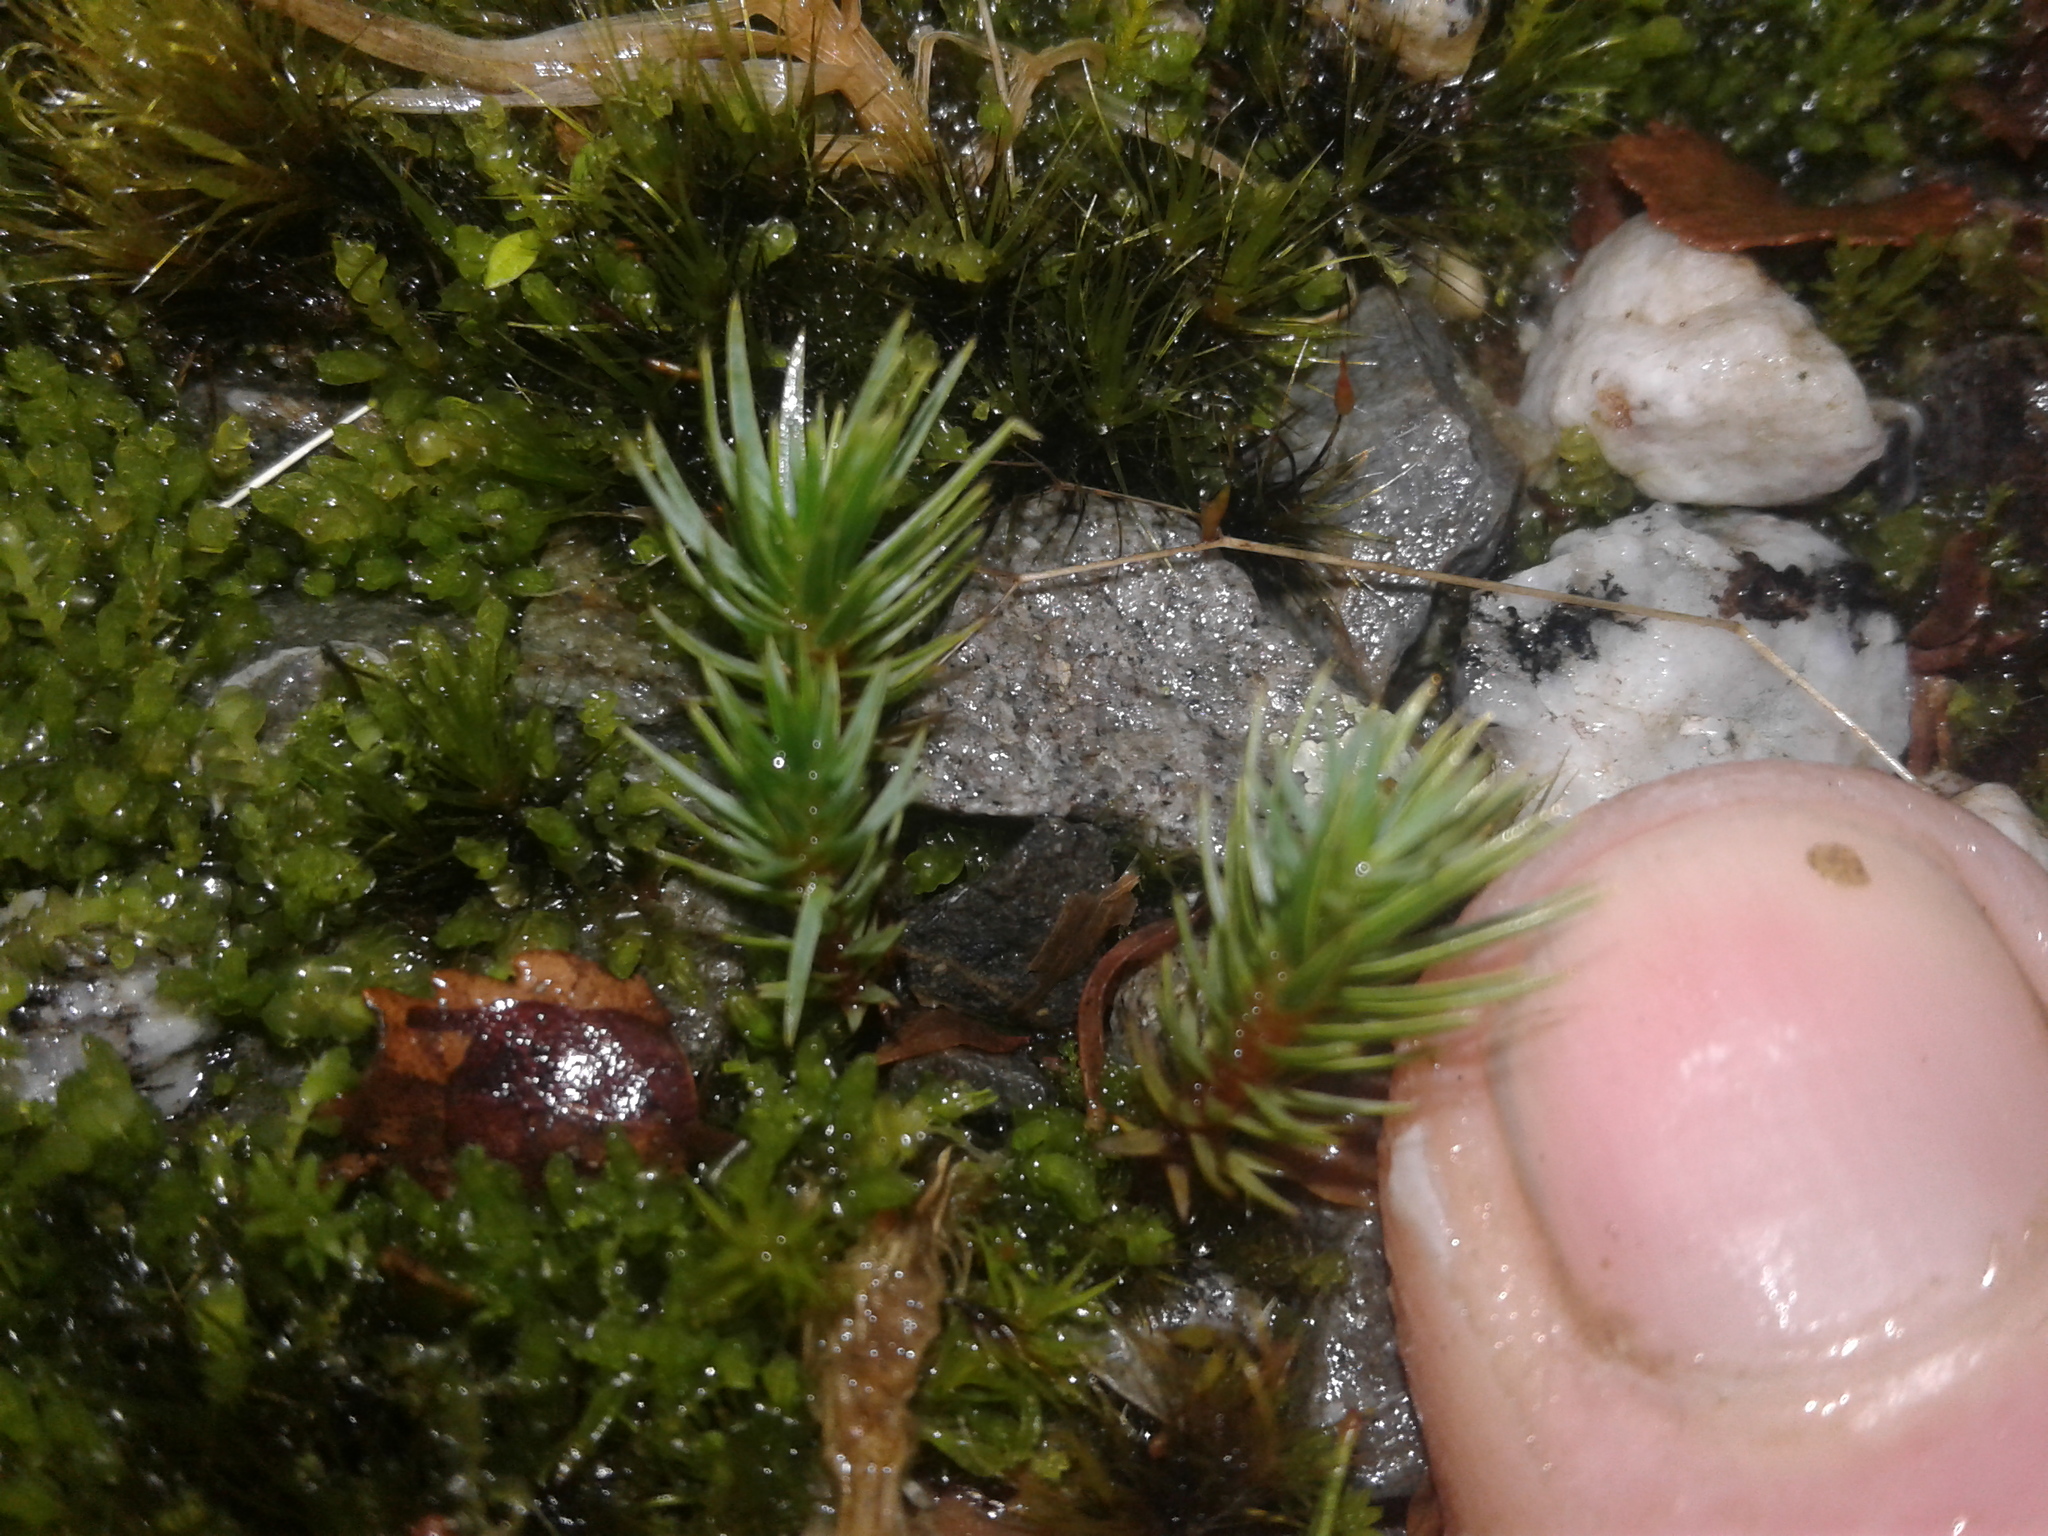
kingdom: Plantae
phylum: Bryophyta
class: Polytrichopsida
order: Polytrichales
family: Polytrichaceae
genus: Polytrichum
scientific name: Polytrichum juniperinum
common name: Juniper haircap moss
